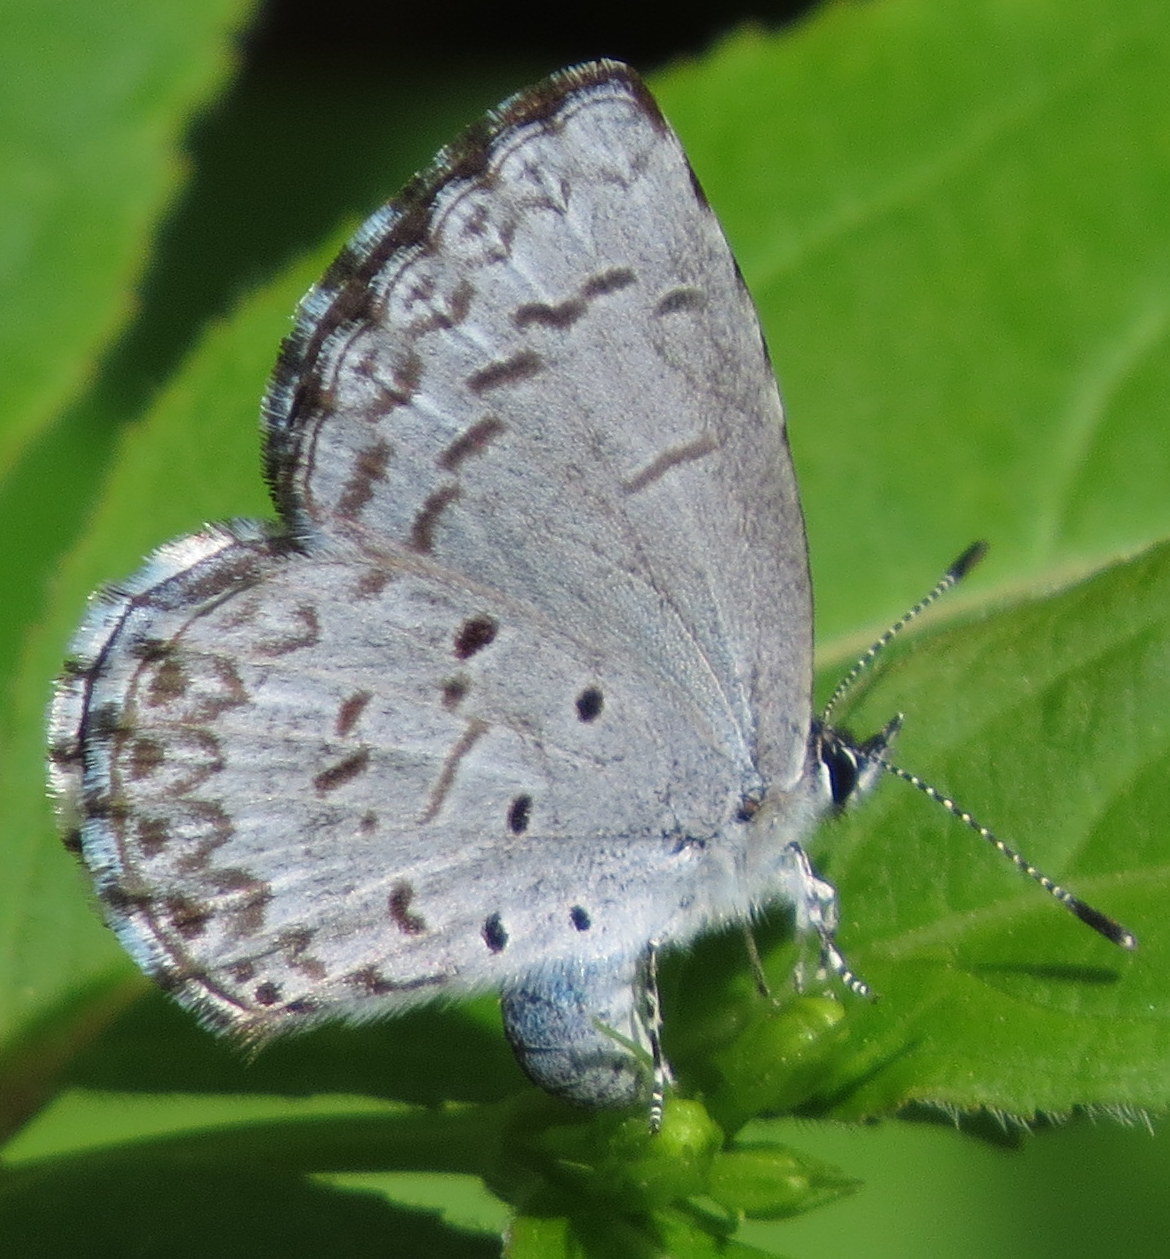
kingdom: Animalia
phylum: Arthropoda
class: Insecta
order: Lepidoptera
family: Lycaenidae
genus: Celastrina
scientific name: Celastrina lucia
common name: Lucia azure
